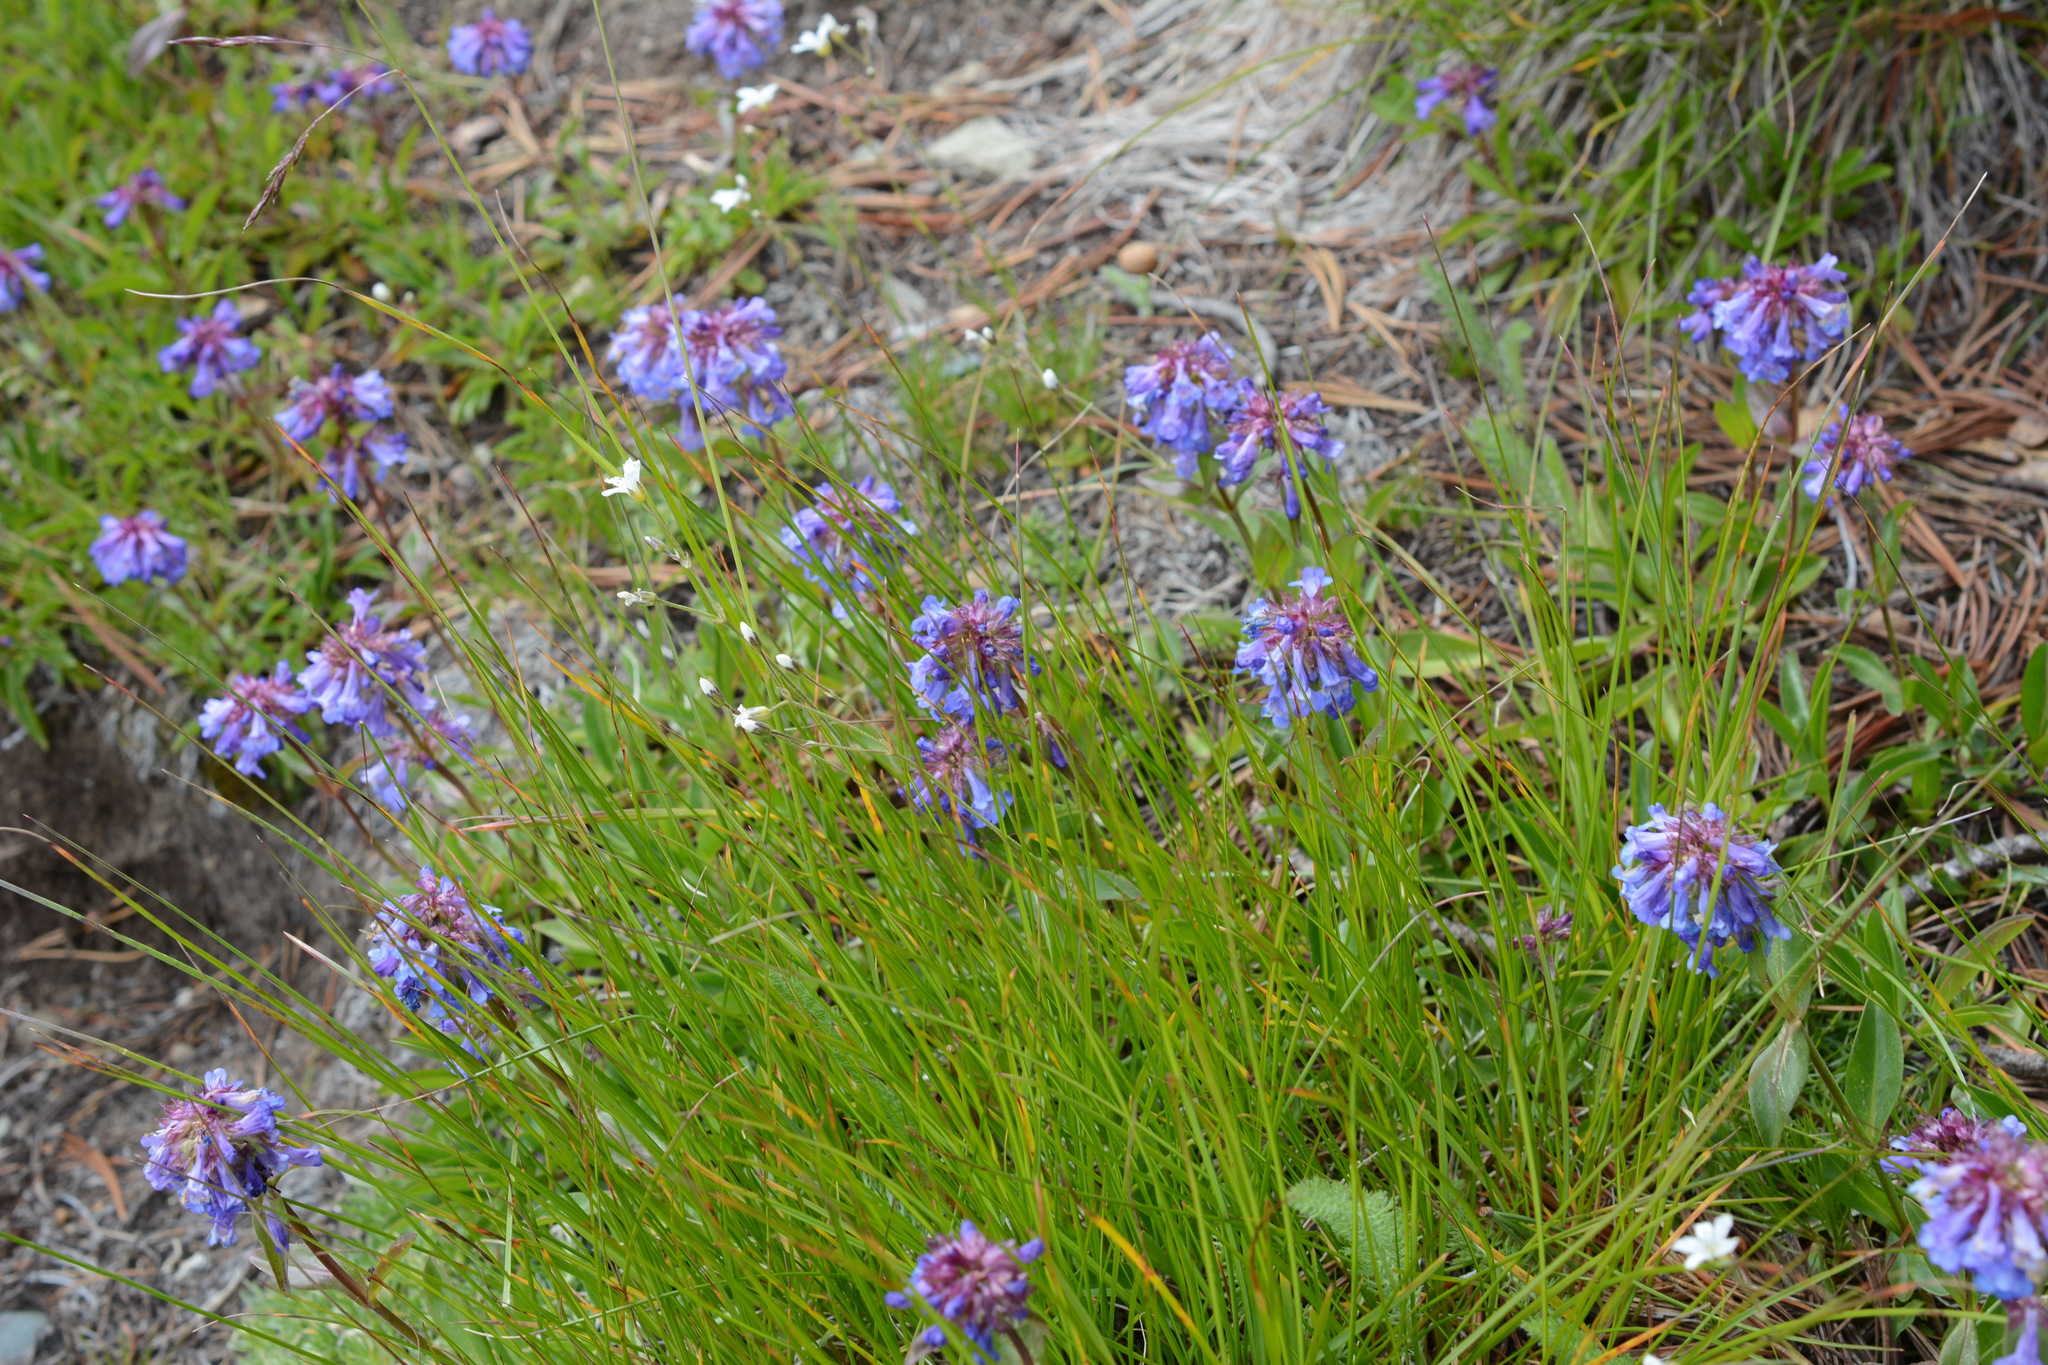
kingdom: Plantae
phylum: Tracheophyta
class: Magnoliopsida
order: Lamiales
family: Plantaginaceae
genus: Penstemon
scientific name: Penstemon procerus
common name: Small-flower penstemon
